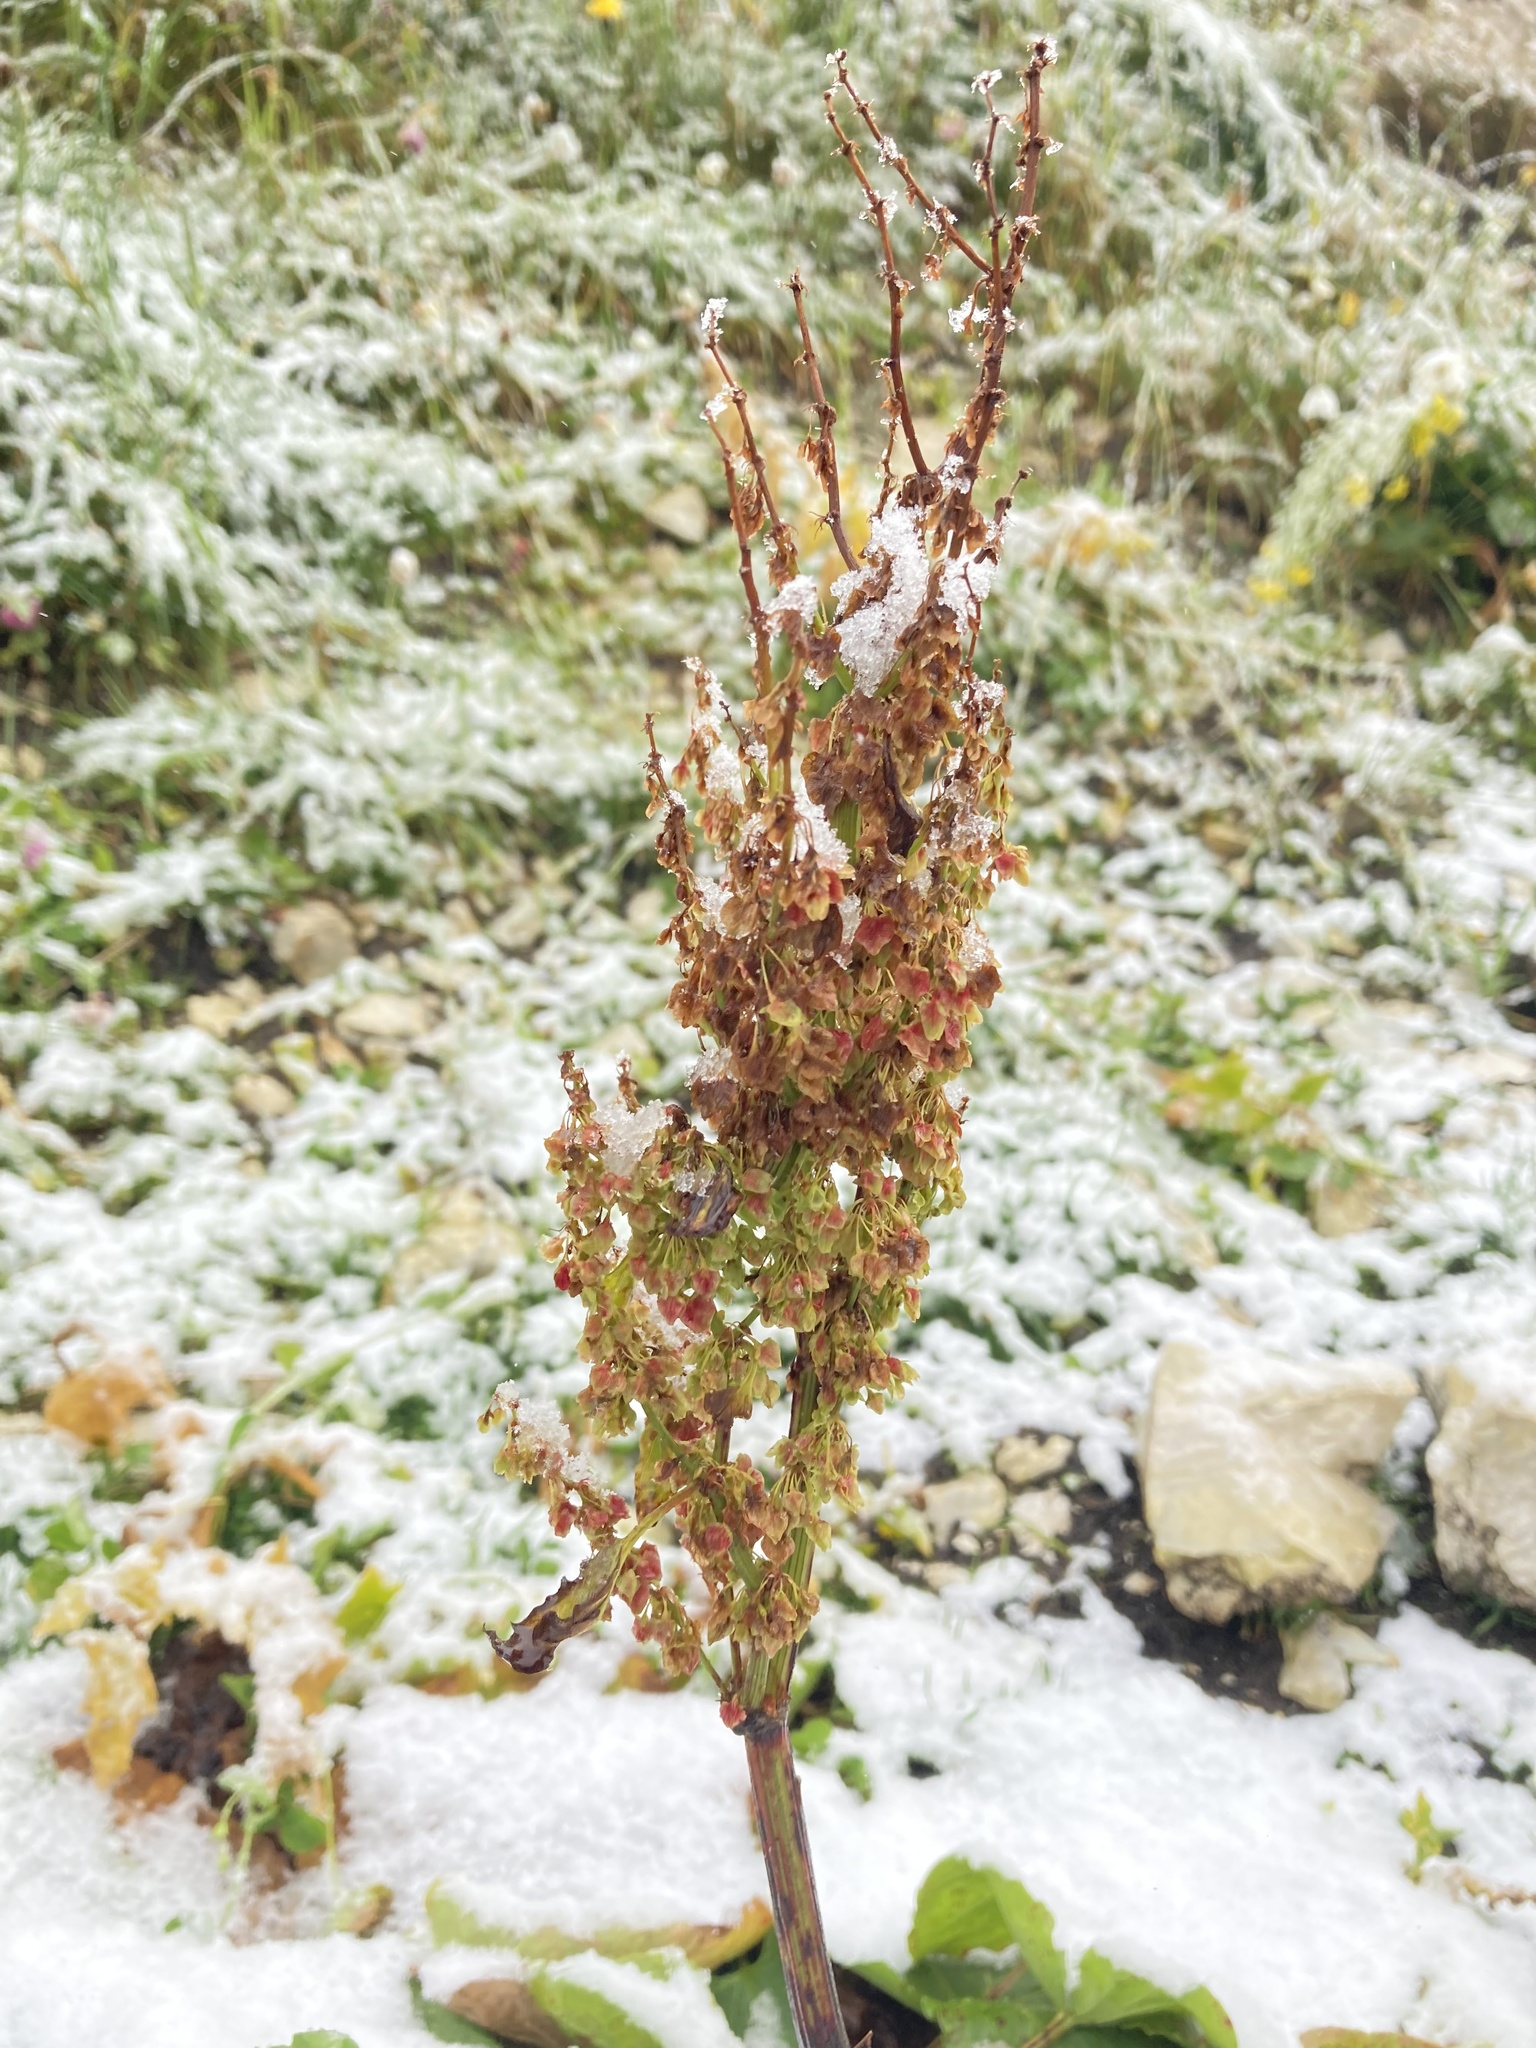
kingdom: Plantae
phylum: Tracheophyta
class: Magnoliopsida
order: Caryophyllales
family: Polygonaceae
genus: Rumex
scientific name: Rumex alpinus
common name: Alpine dock
